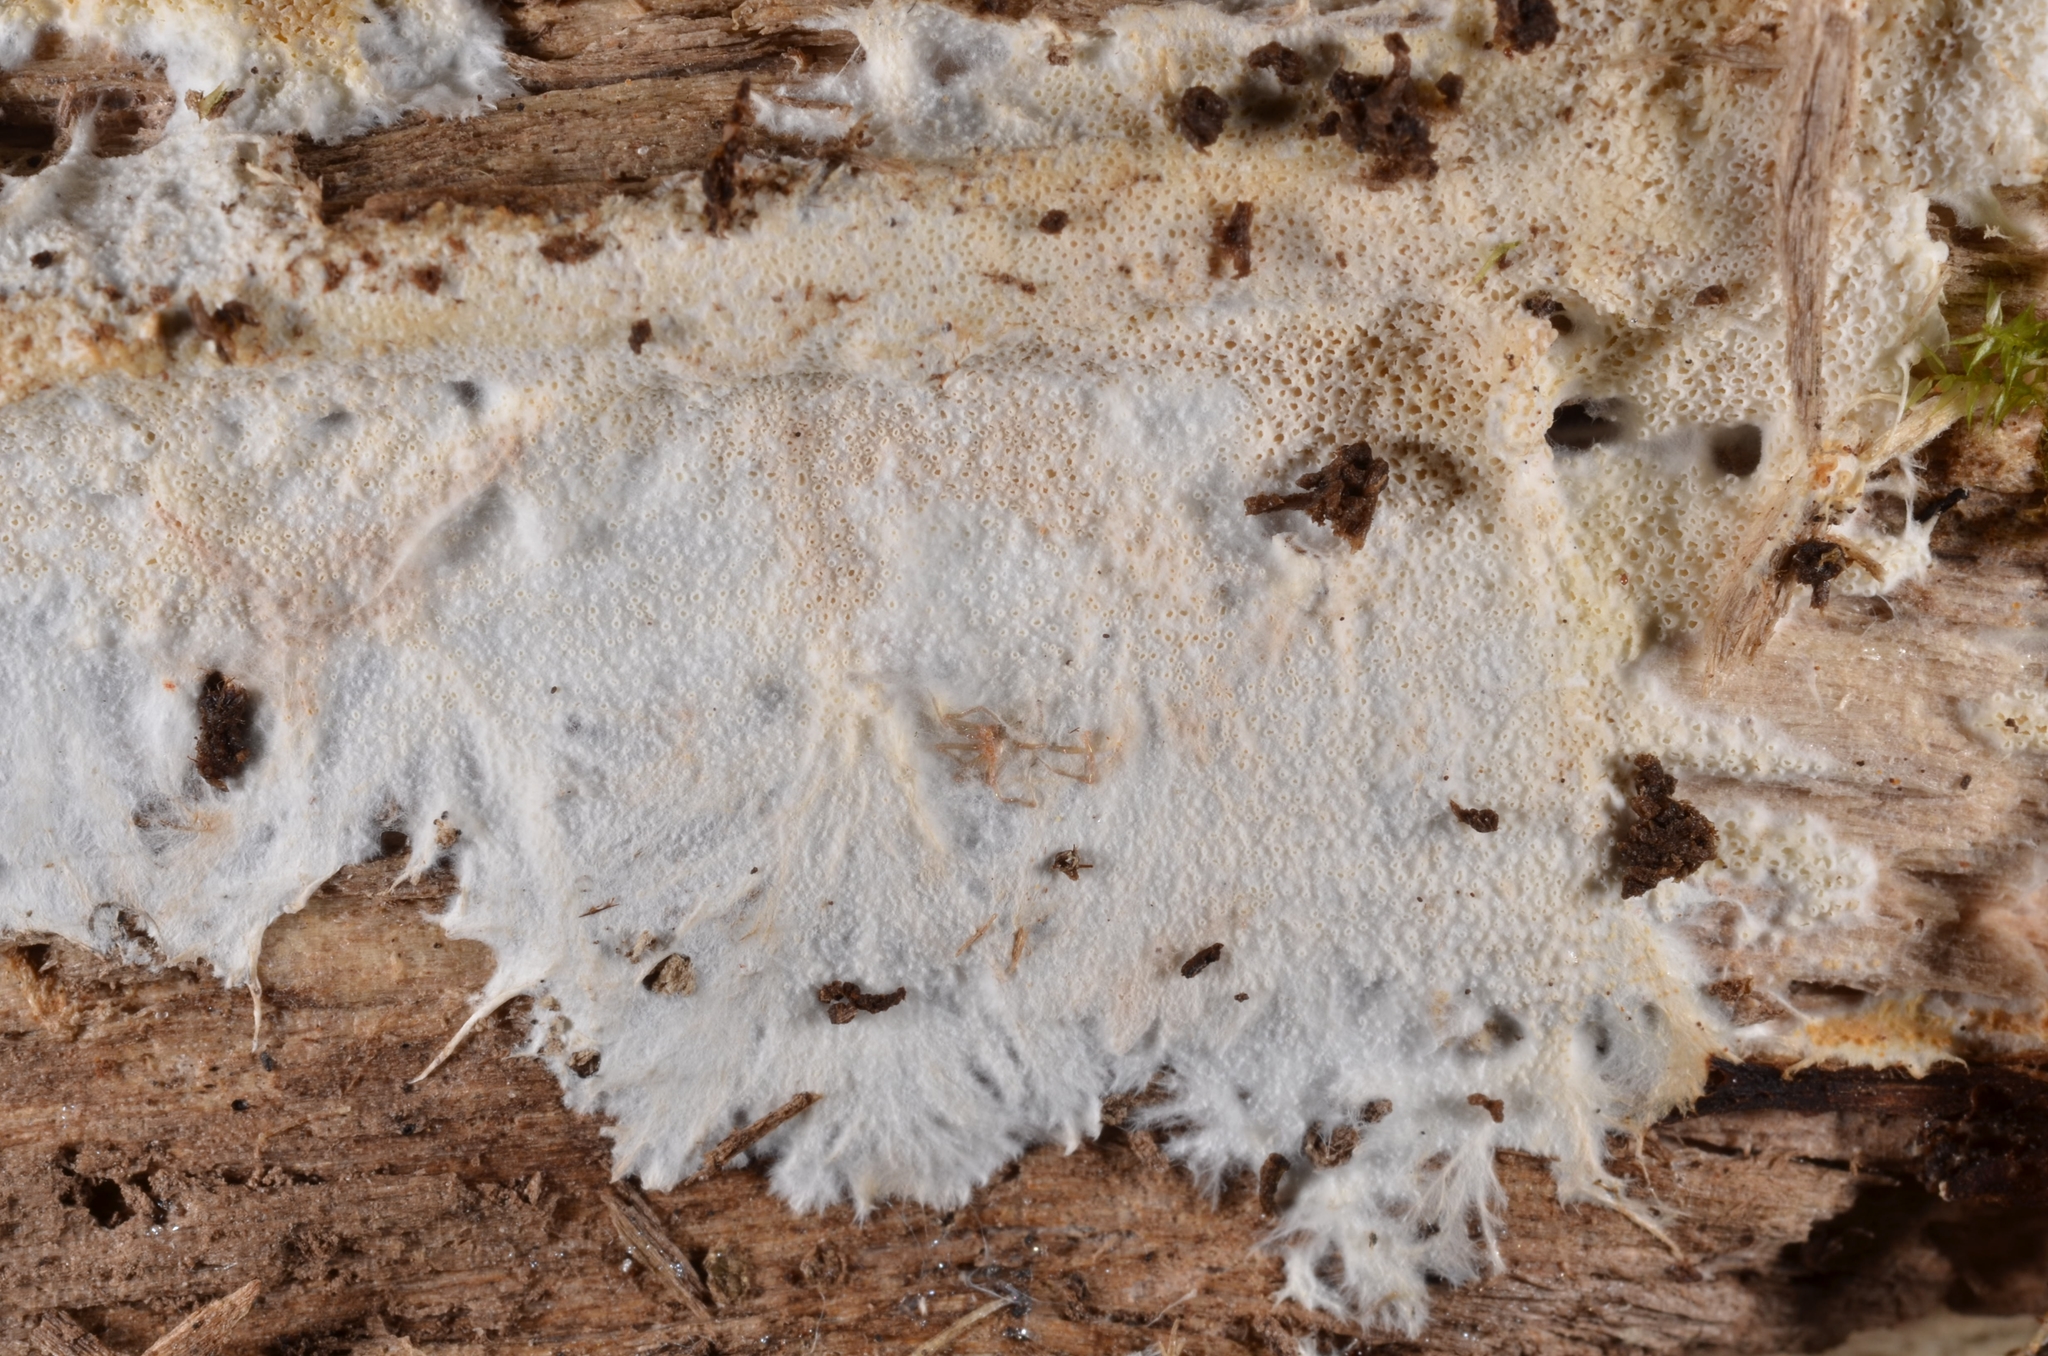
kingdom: Fungi
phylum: Basidiomycota
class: Agaricomycetes
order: Agaricales
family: Porotheleaceae
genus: Porotheleum
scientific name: Porotheleum fimbriatum
